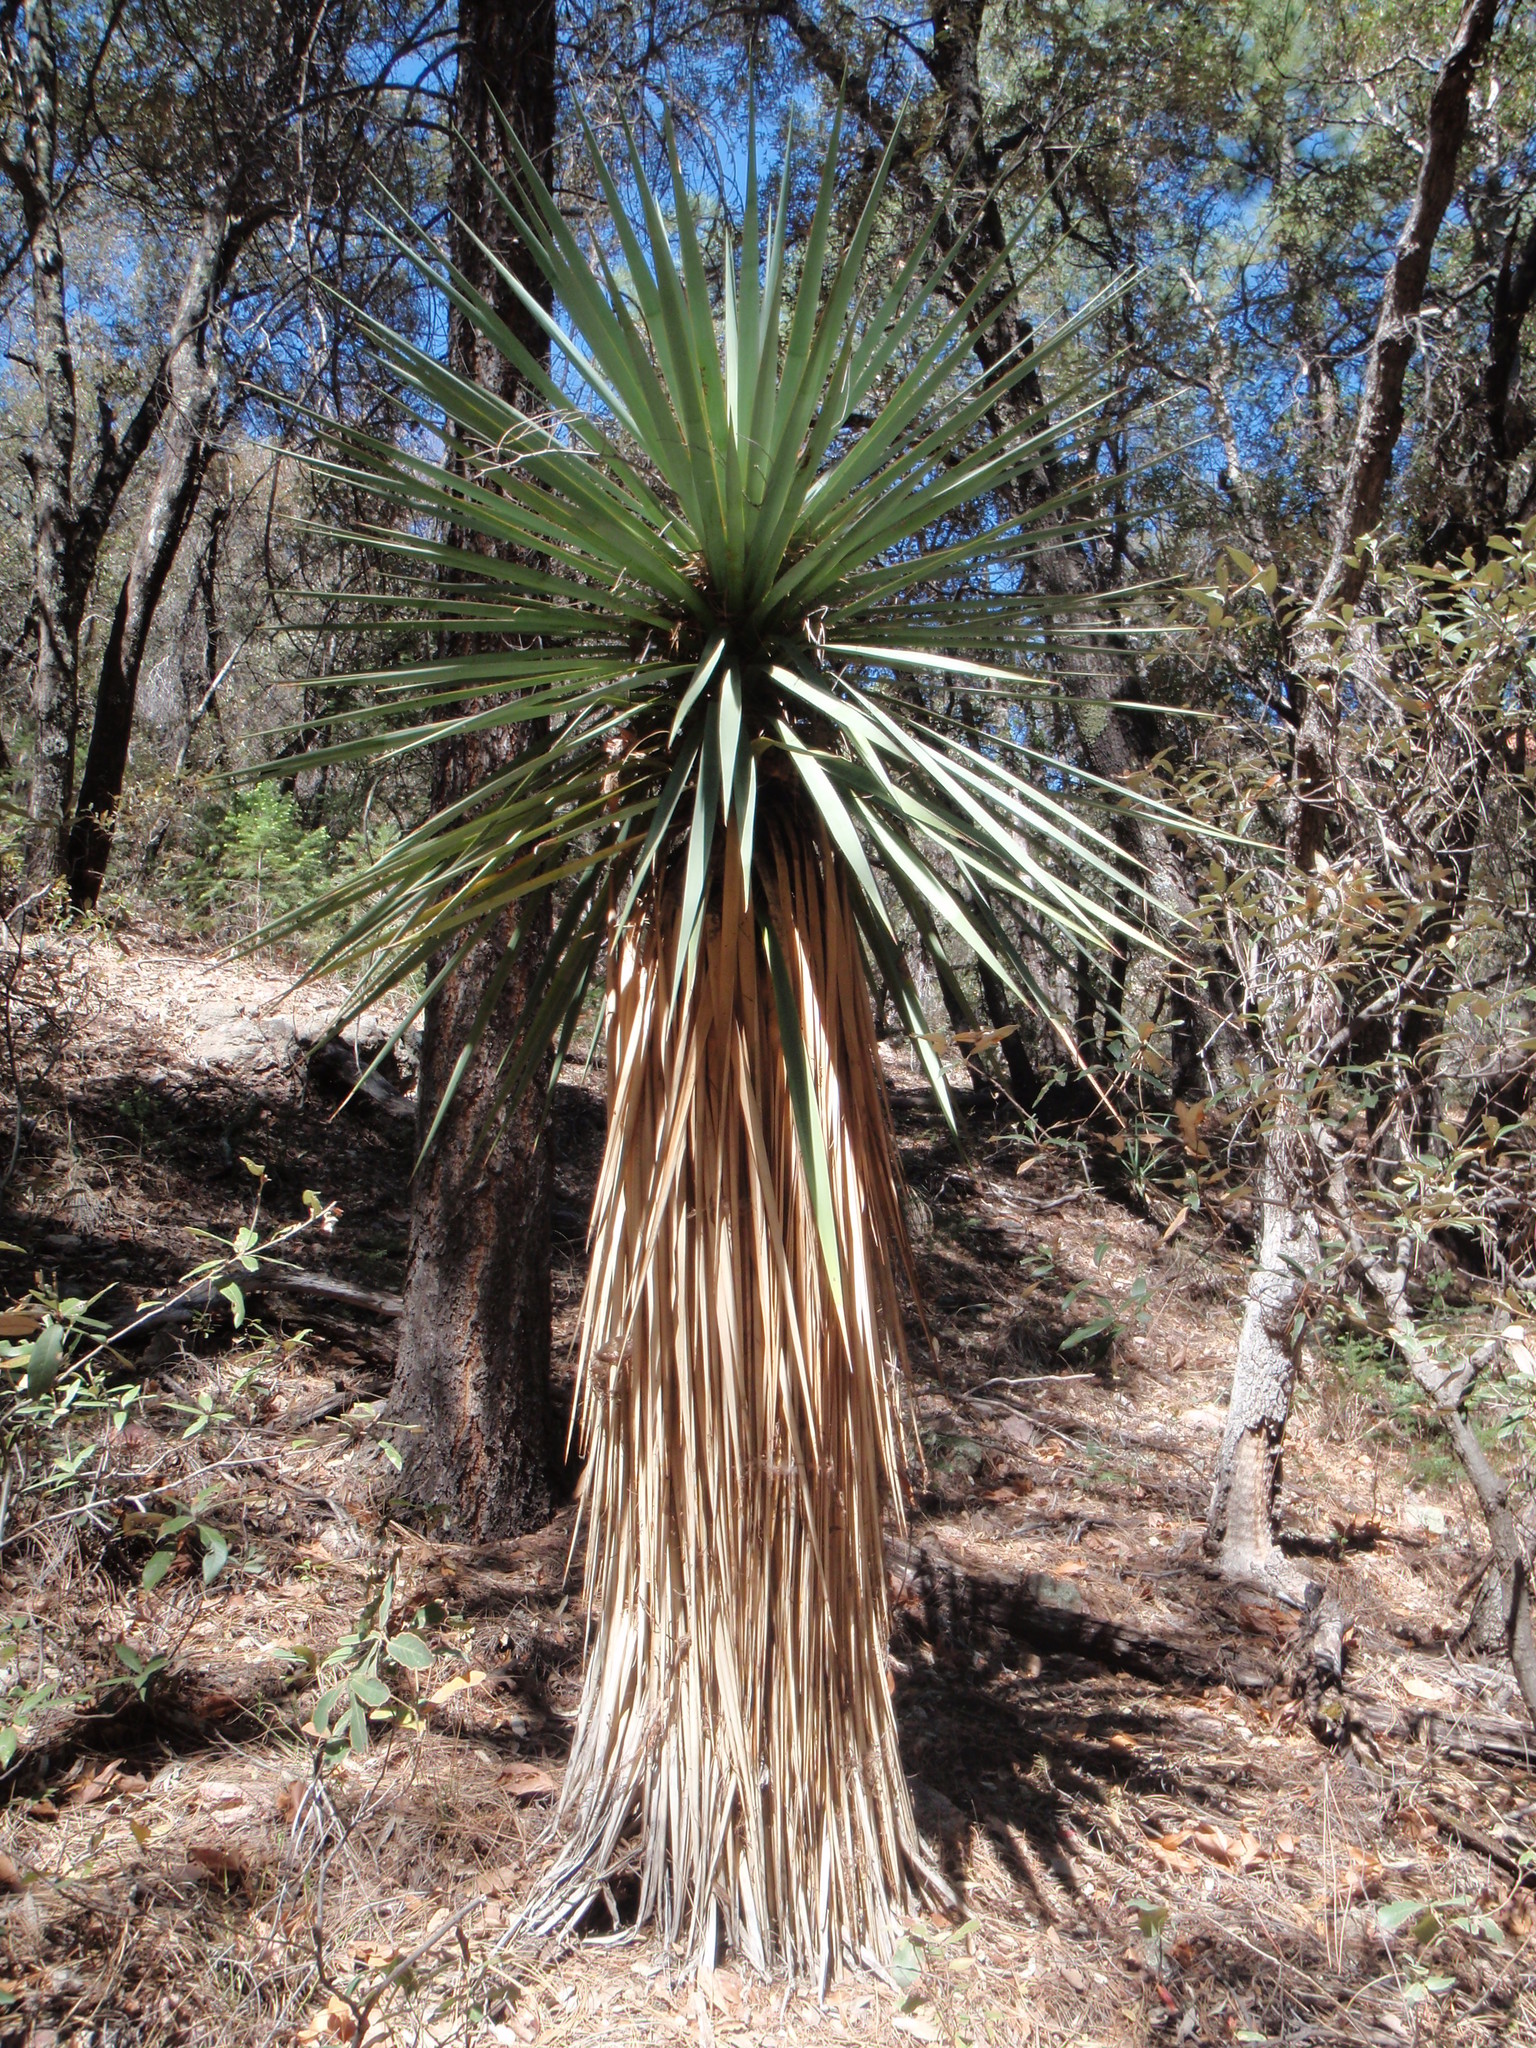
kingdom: Plantae
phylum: Tracheophyta
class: Liliopsida
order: Asparagales
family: Asparagaceae
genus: Yucca
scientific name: Yucca madrensis
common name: Hoary yucca
